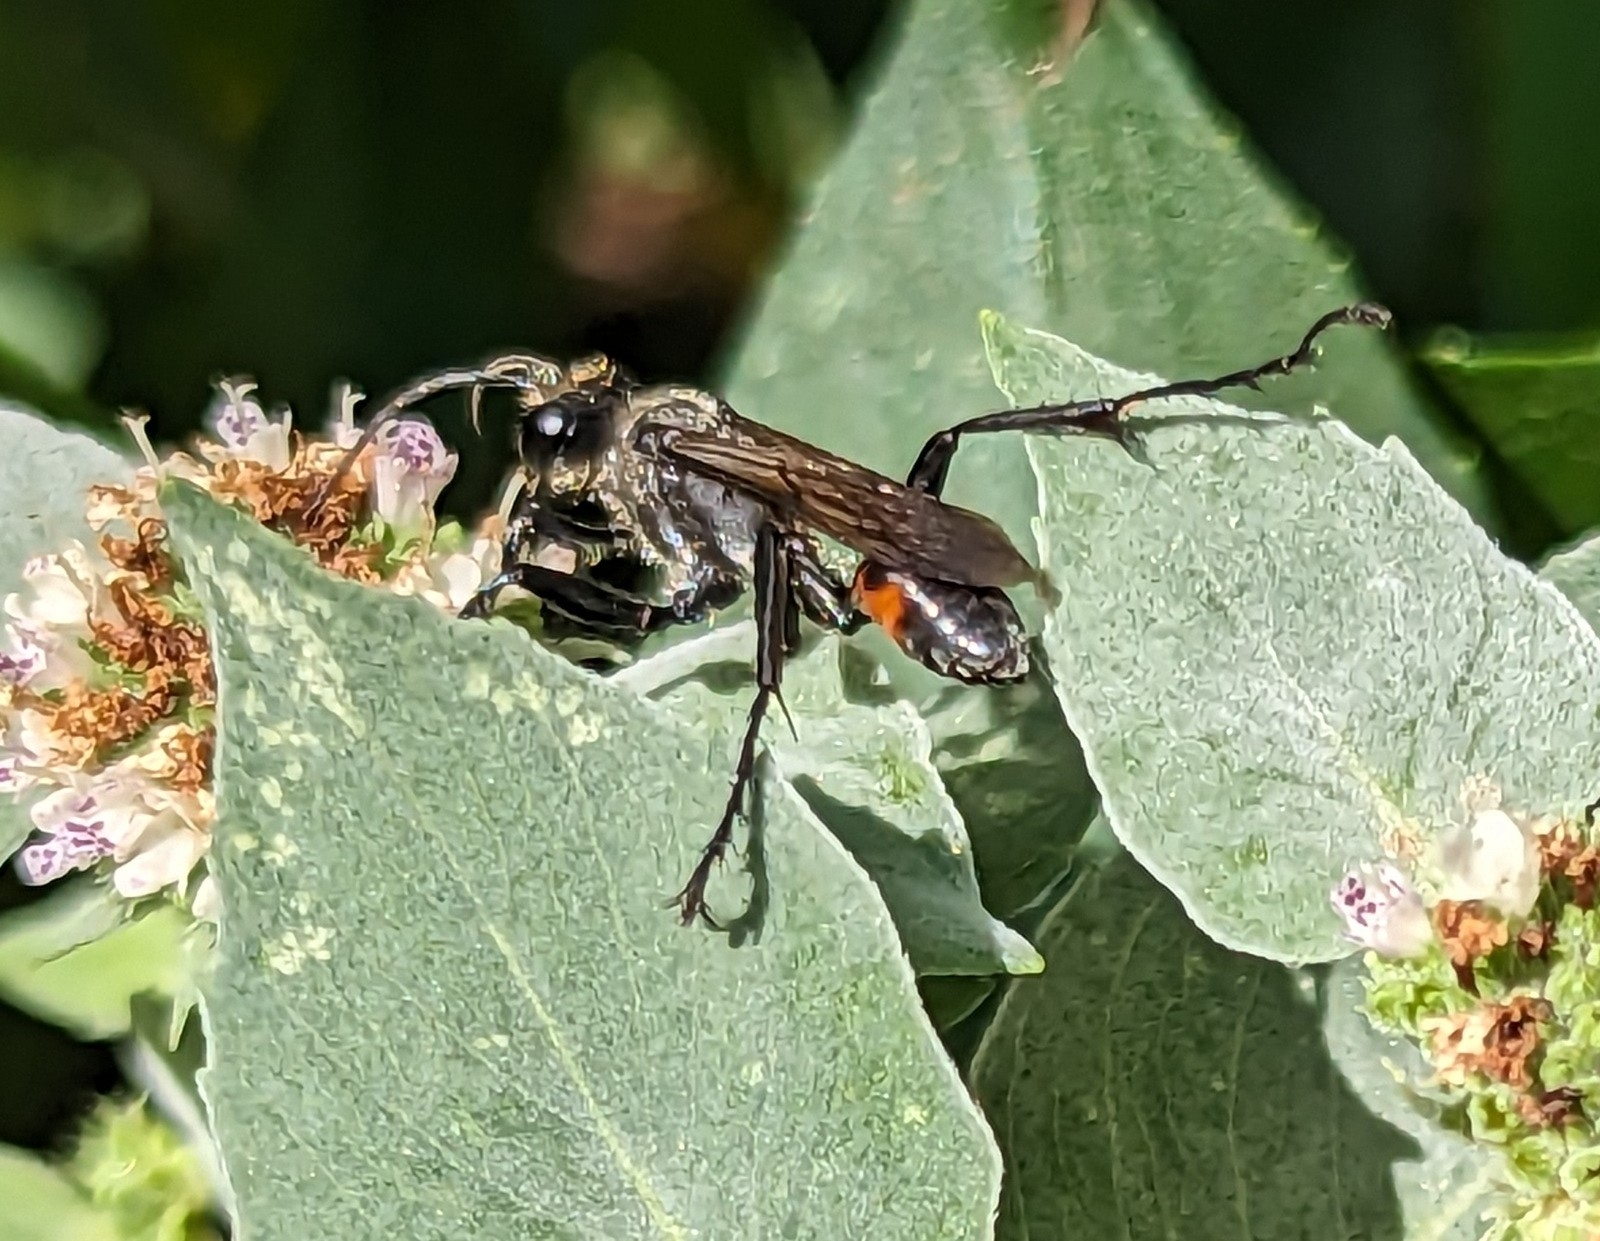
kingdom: Animalia
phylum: Arthropoda
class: Insecta
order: Hymenoptera
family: Sphecidae
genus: Prionyx
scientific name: Prionyx parkeri
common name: Parker's thread-waisted wasp
